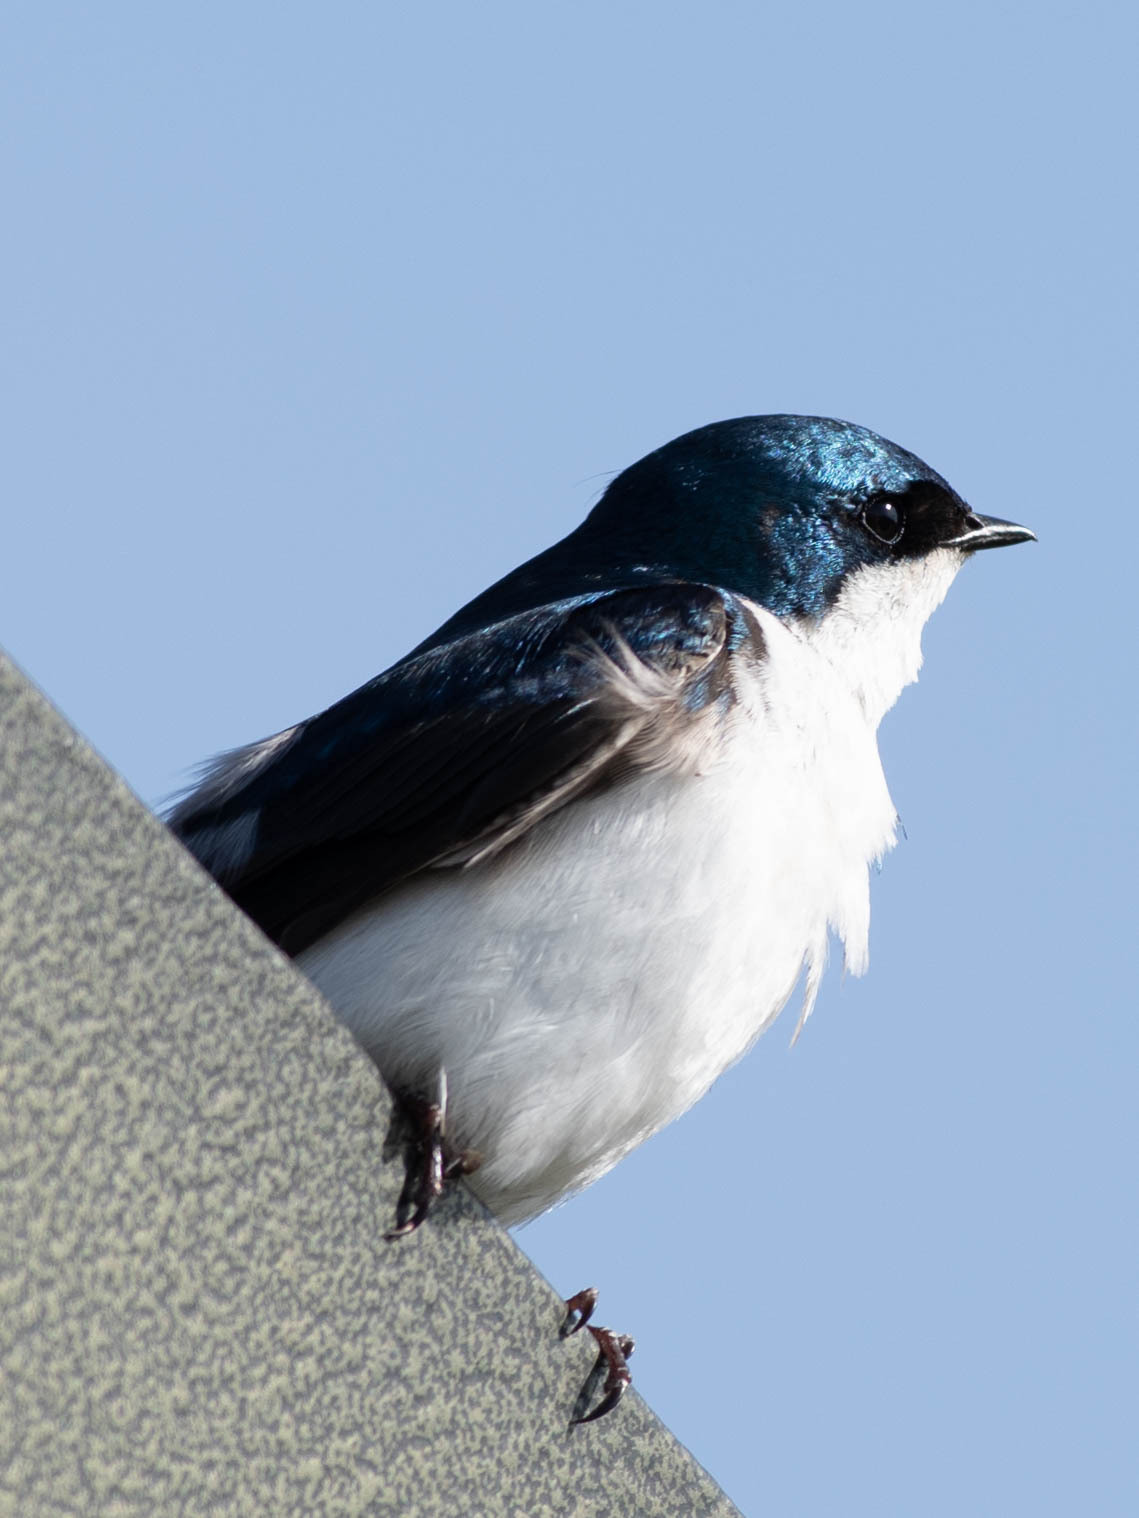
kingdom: Animalia
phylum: Chordata
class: Aves
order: Passeriformes
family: Hirundinidae
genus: Tachycineta
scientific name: Tachycineta bicolor
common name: Tree swallow
